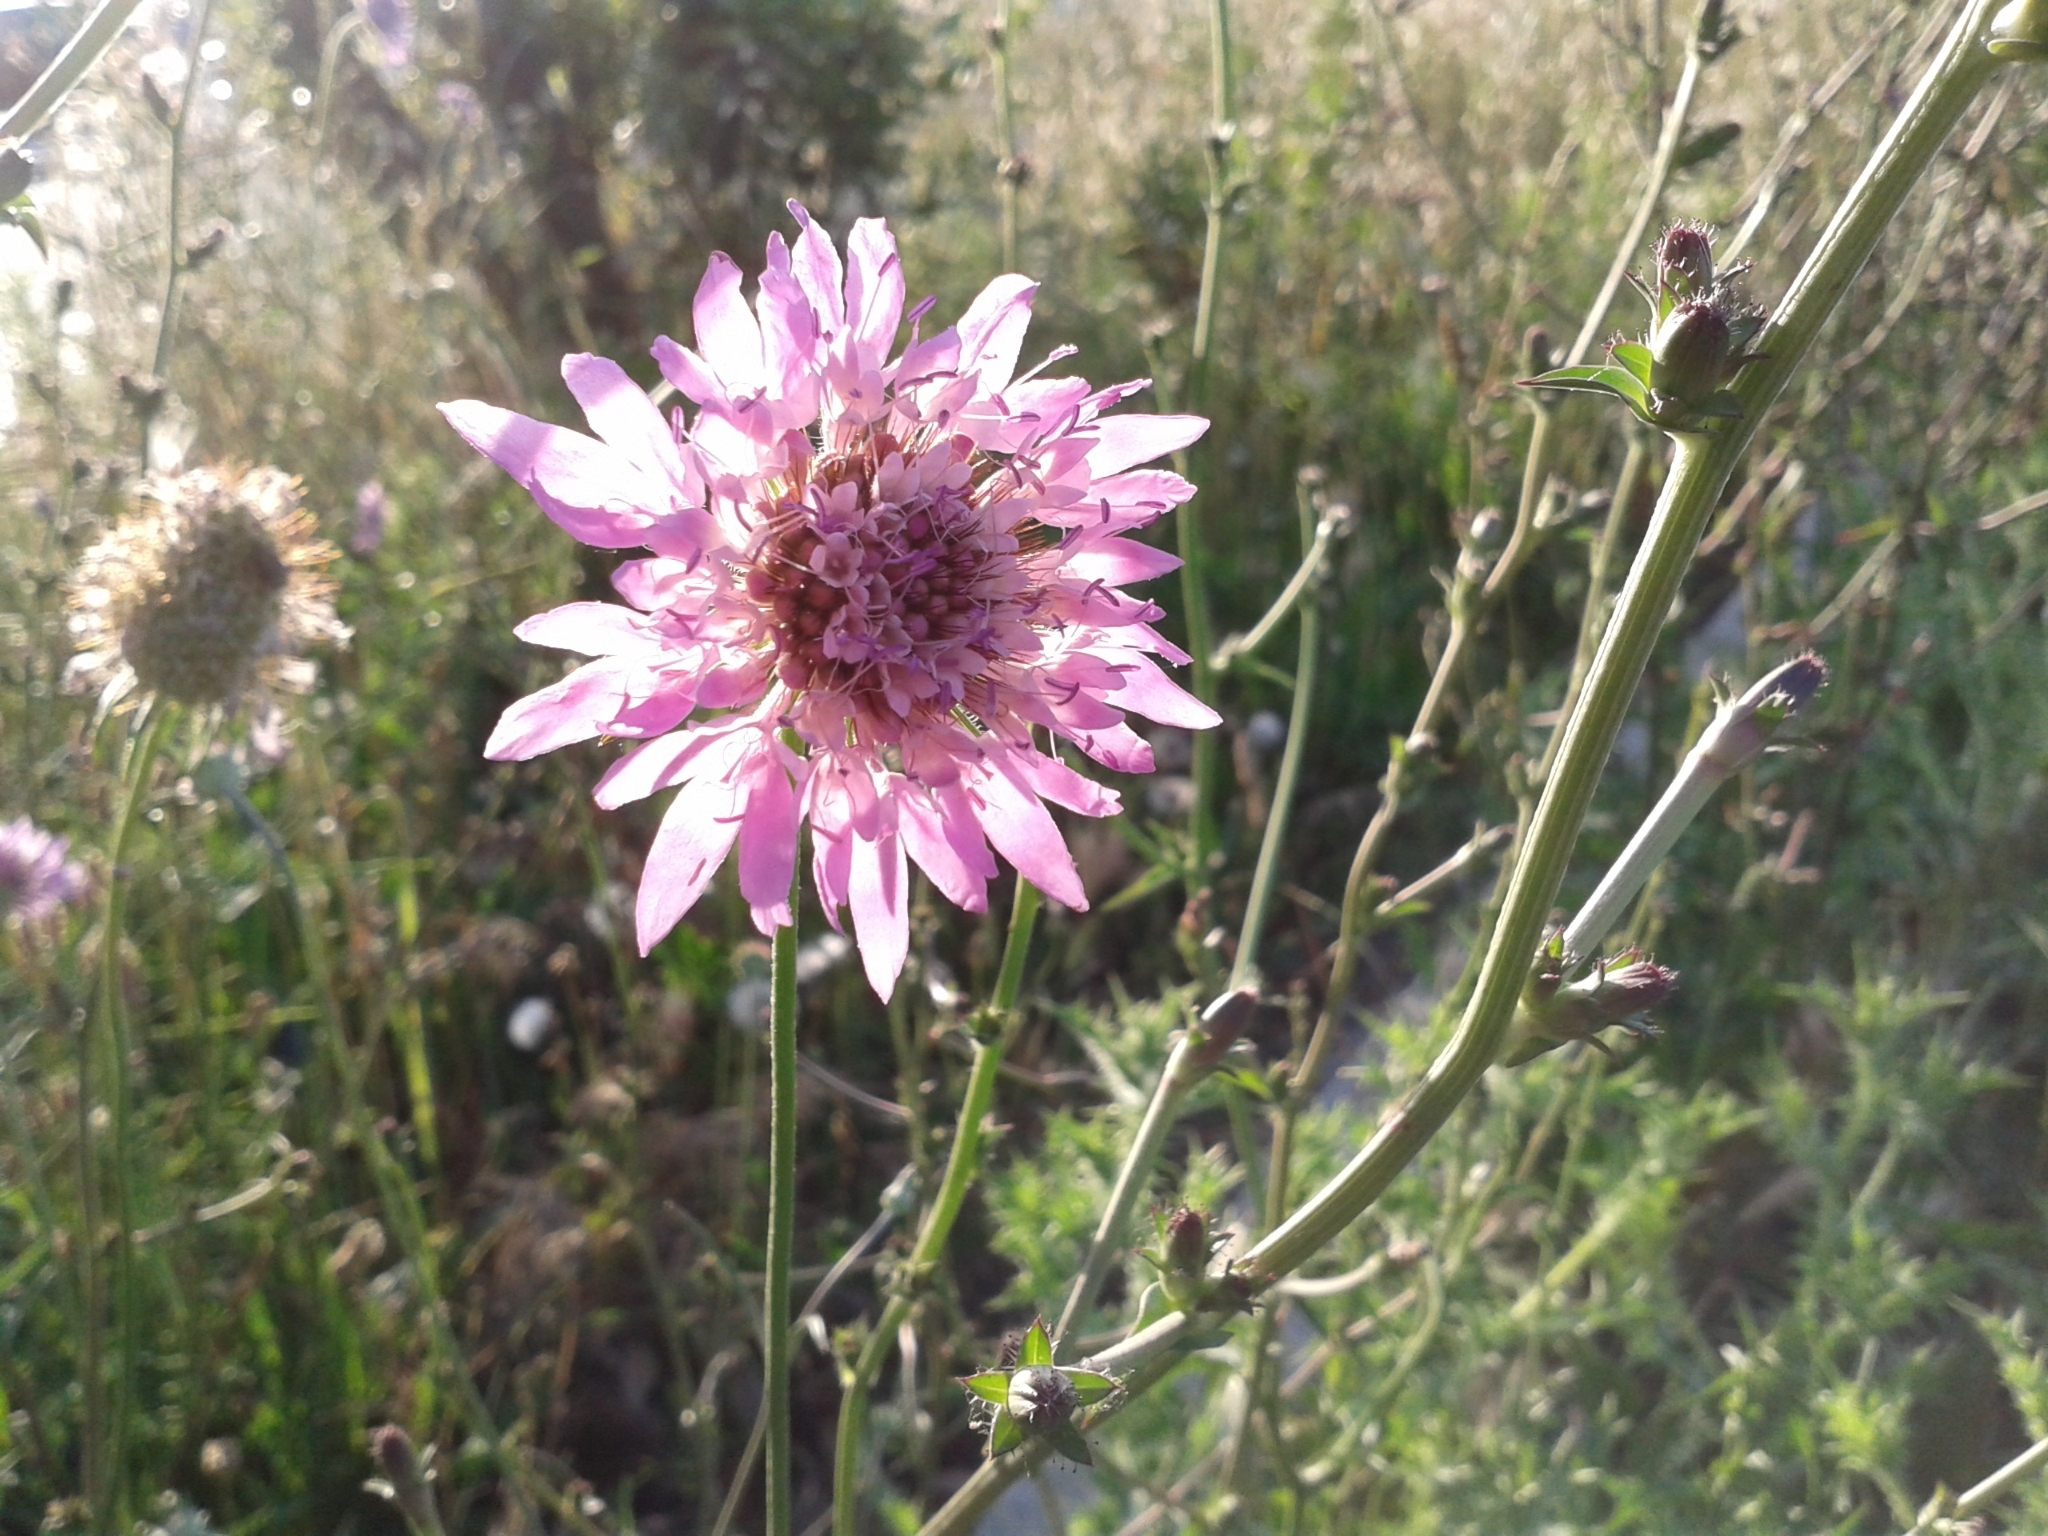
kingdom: Plantae
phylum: Tracheophyta
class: Magnoliopsida
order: Dipsacales
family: Caprifoliaceae
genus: Sixalix
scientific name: Sixalix atropurpurea
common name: Sweet scabious
